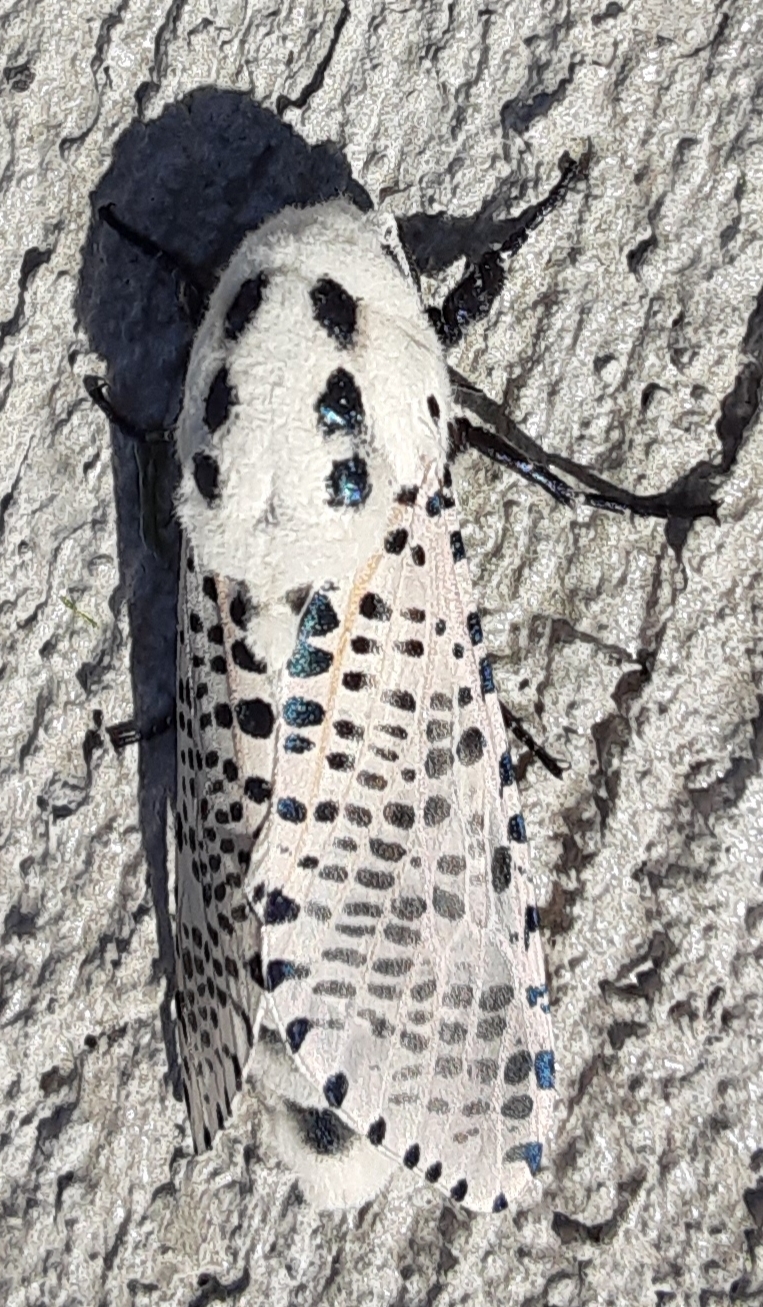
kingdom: Animalia
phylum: Arthropoda
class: Insecta
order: Lepidoptera
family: Cossidae
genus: Zeuzera
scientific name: Zeuzera pyrina
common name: Leopard moth
